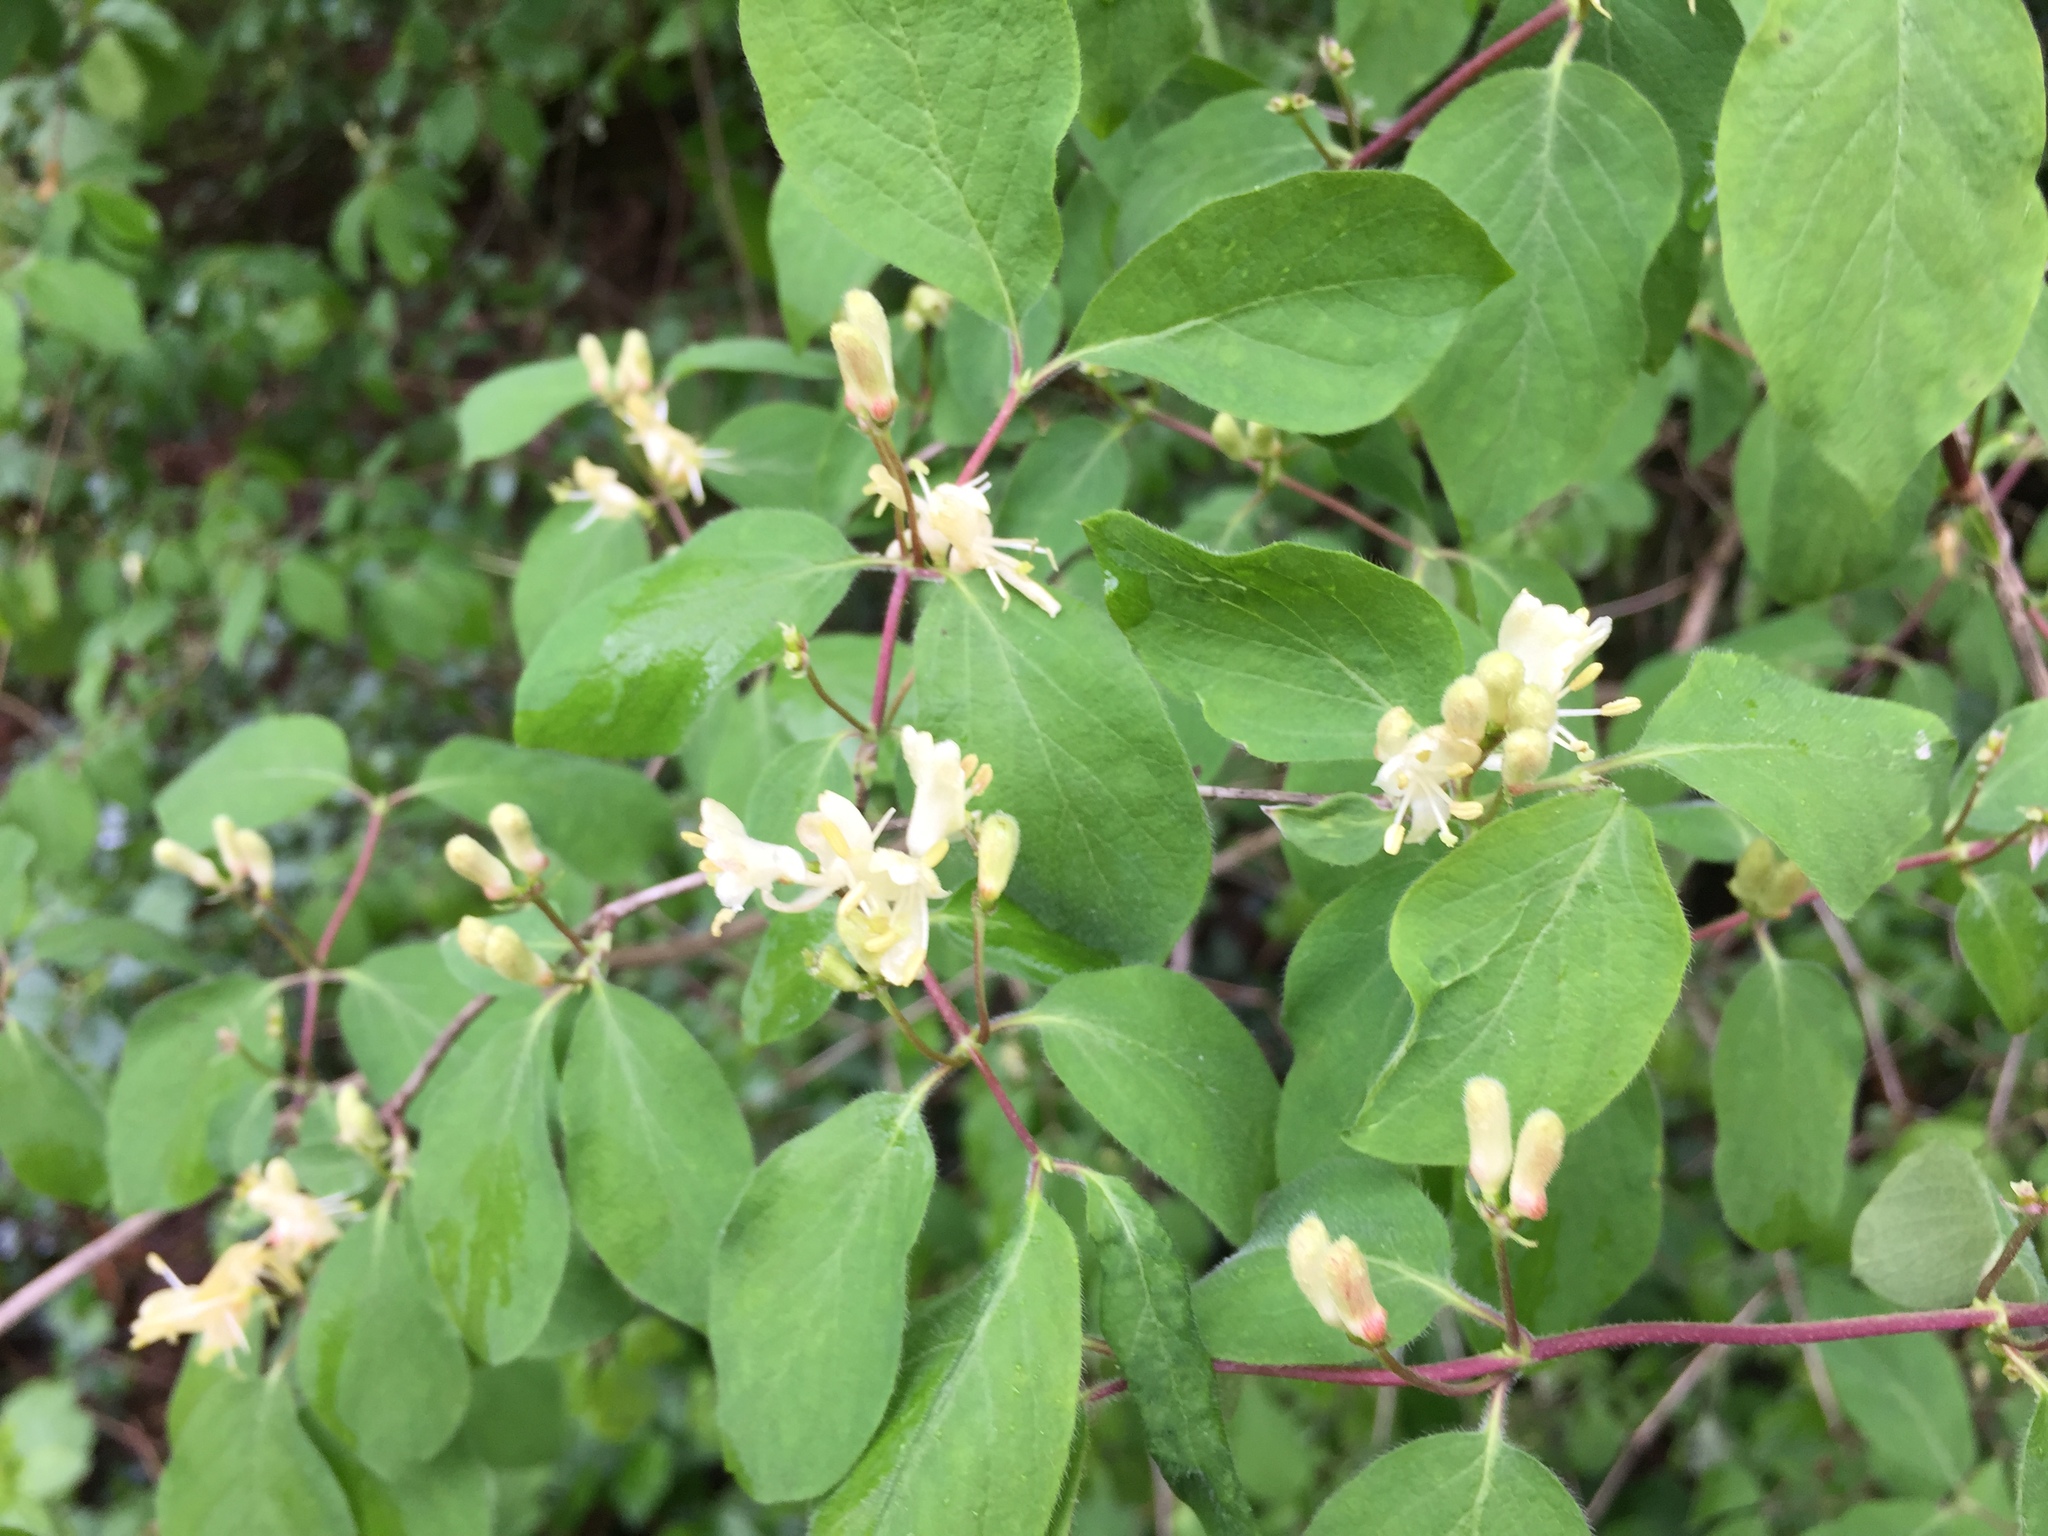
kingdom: Plantae
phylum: Tracheophyta
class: Magnoliopsida
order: Dipsacales
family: Caprifoliaceae
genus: Lonicera
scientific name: Lonicera xylosteum
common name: Fly honeysuckle
